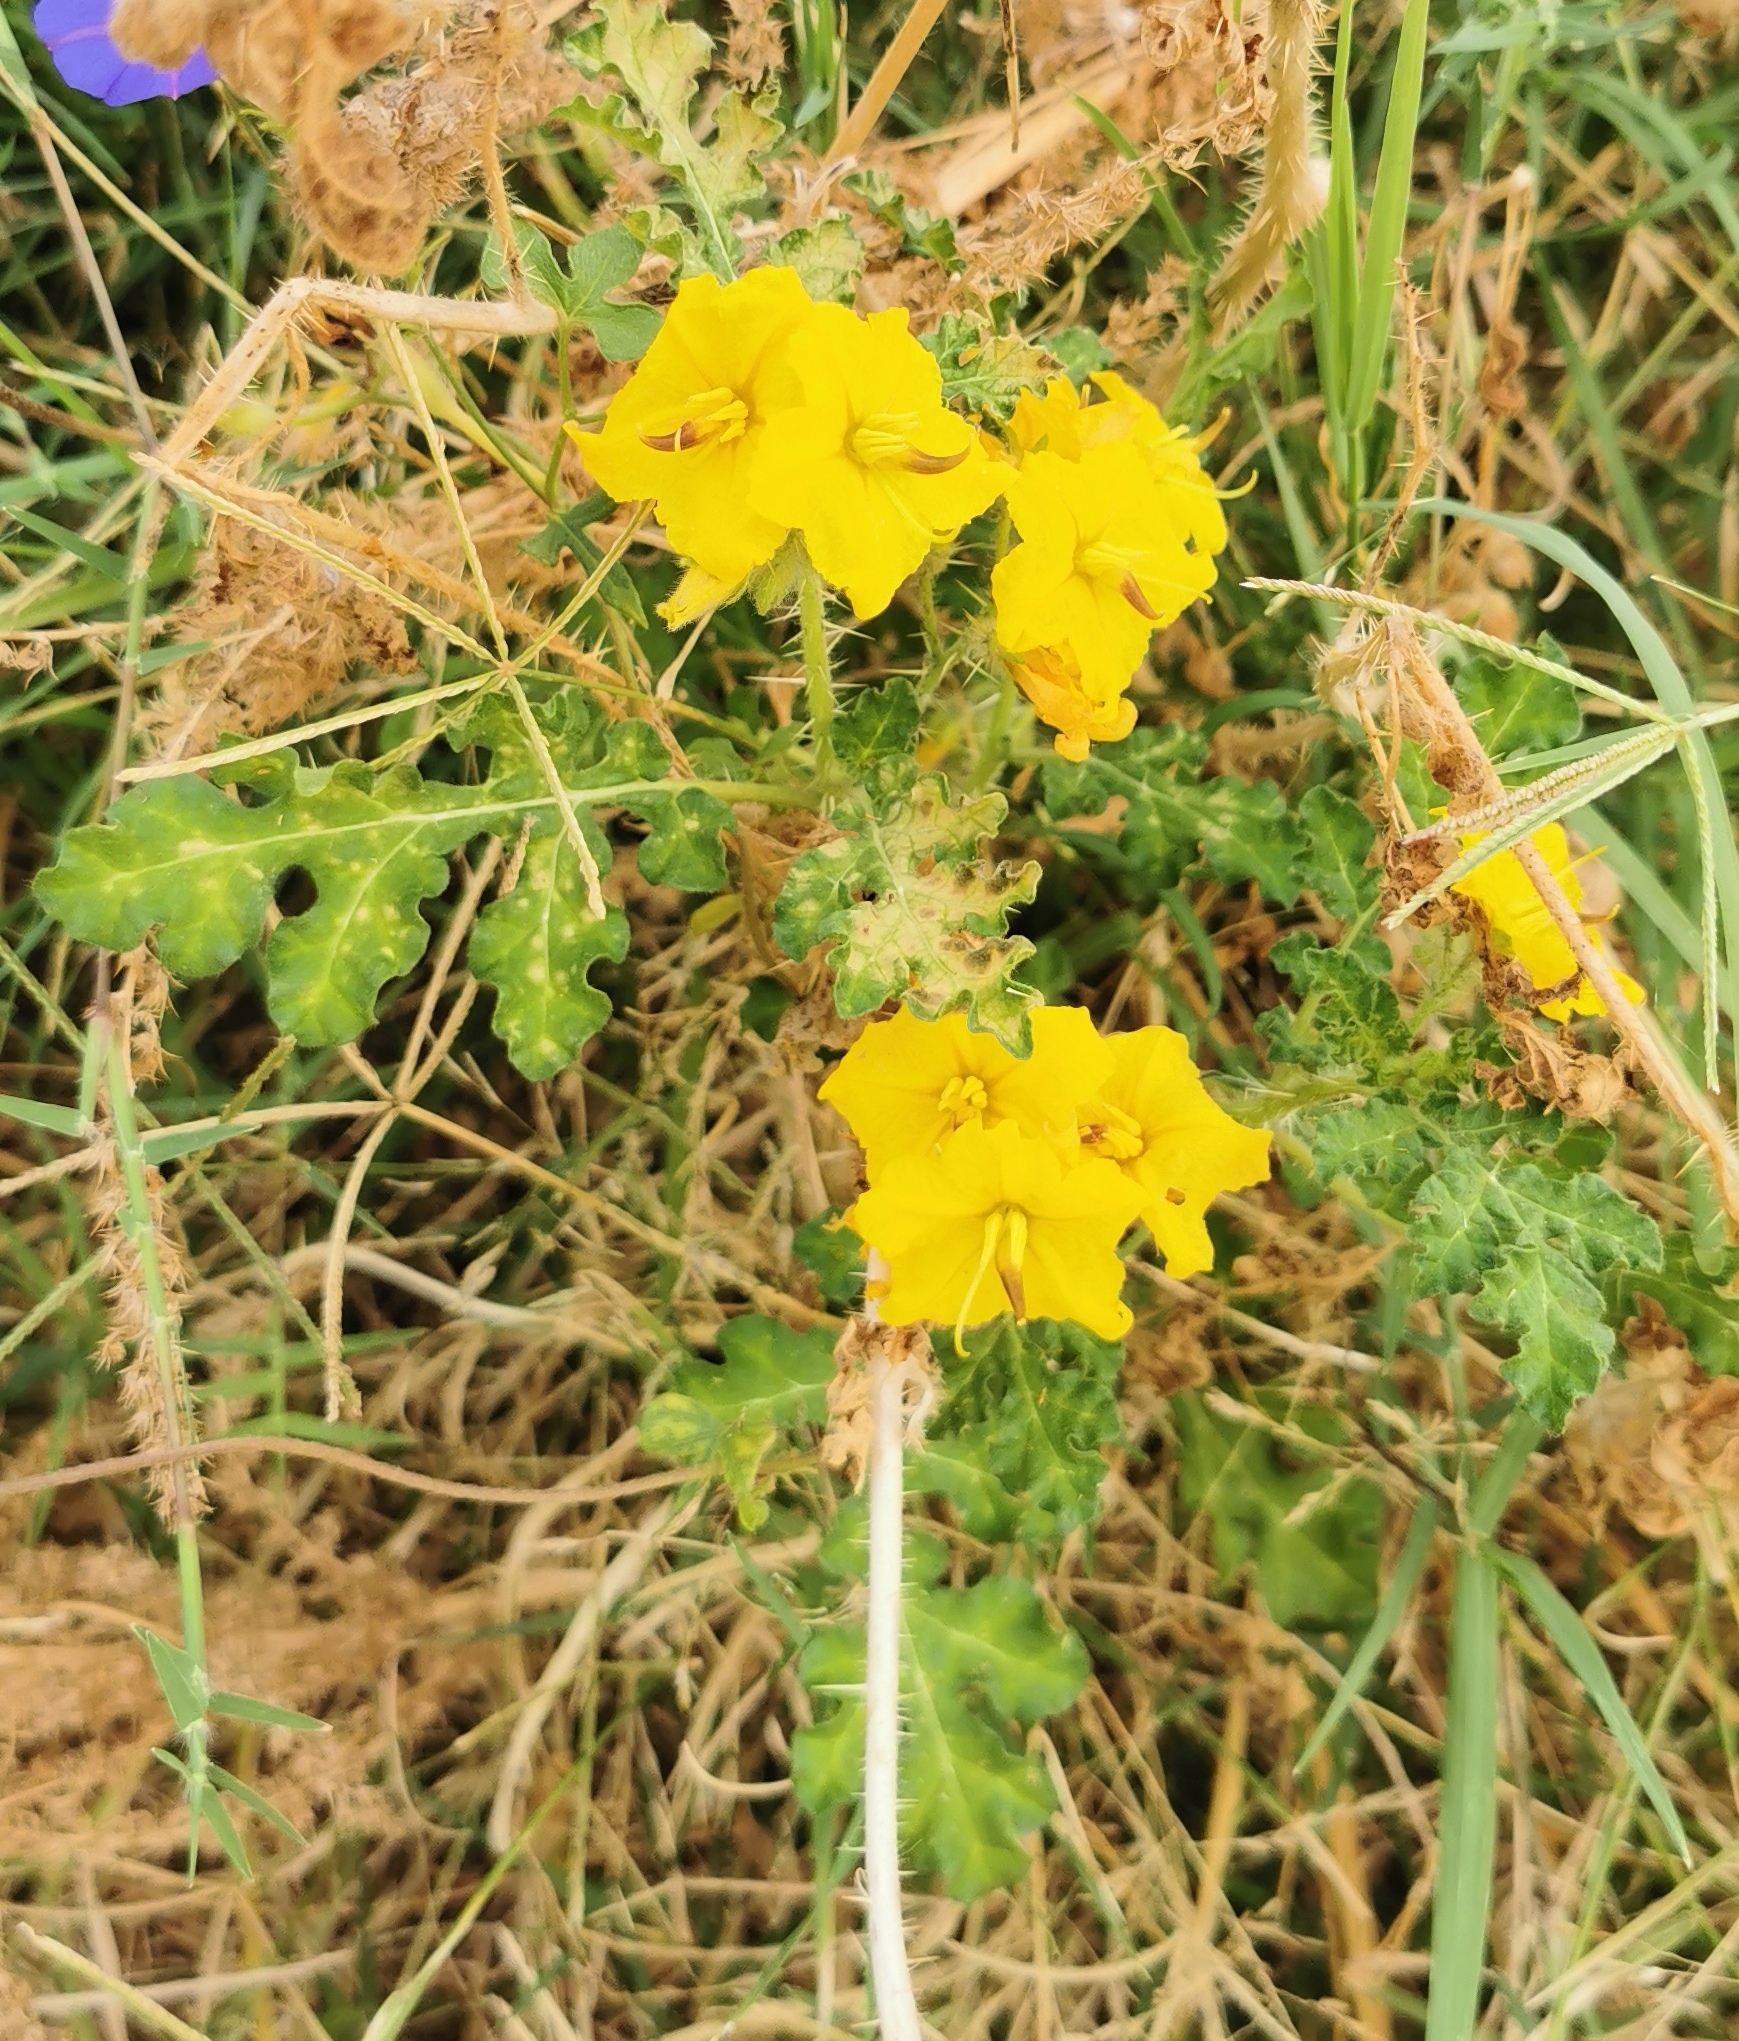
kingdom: Plantae
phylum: Tracheophyta
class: Magnoliopsida
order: Solanales
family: Solanaceae
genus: Solanum
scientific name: Solanum angustifolium
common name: Buffalobur nightshade
